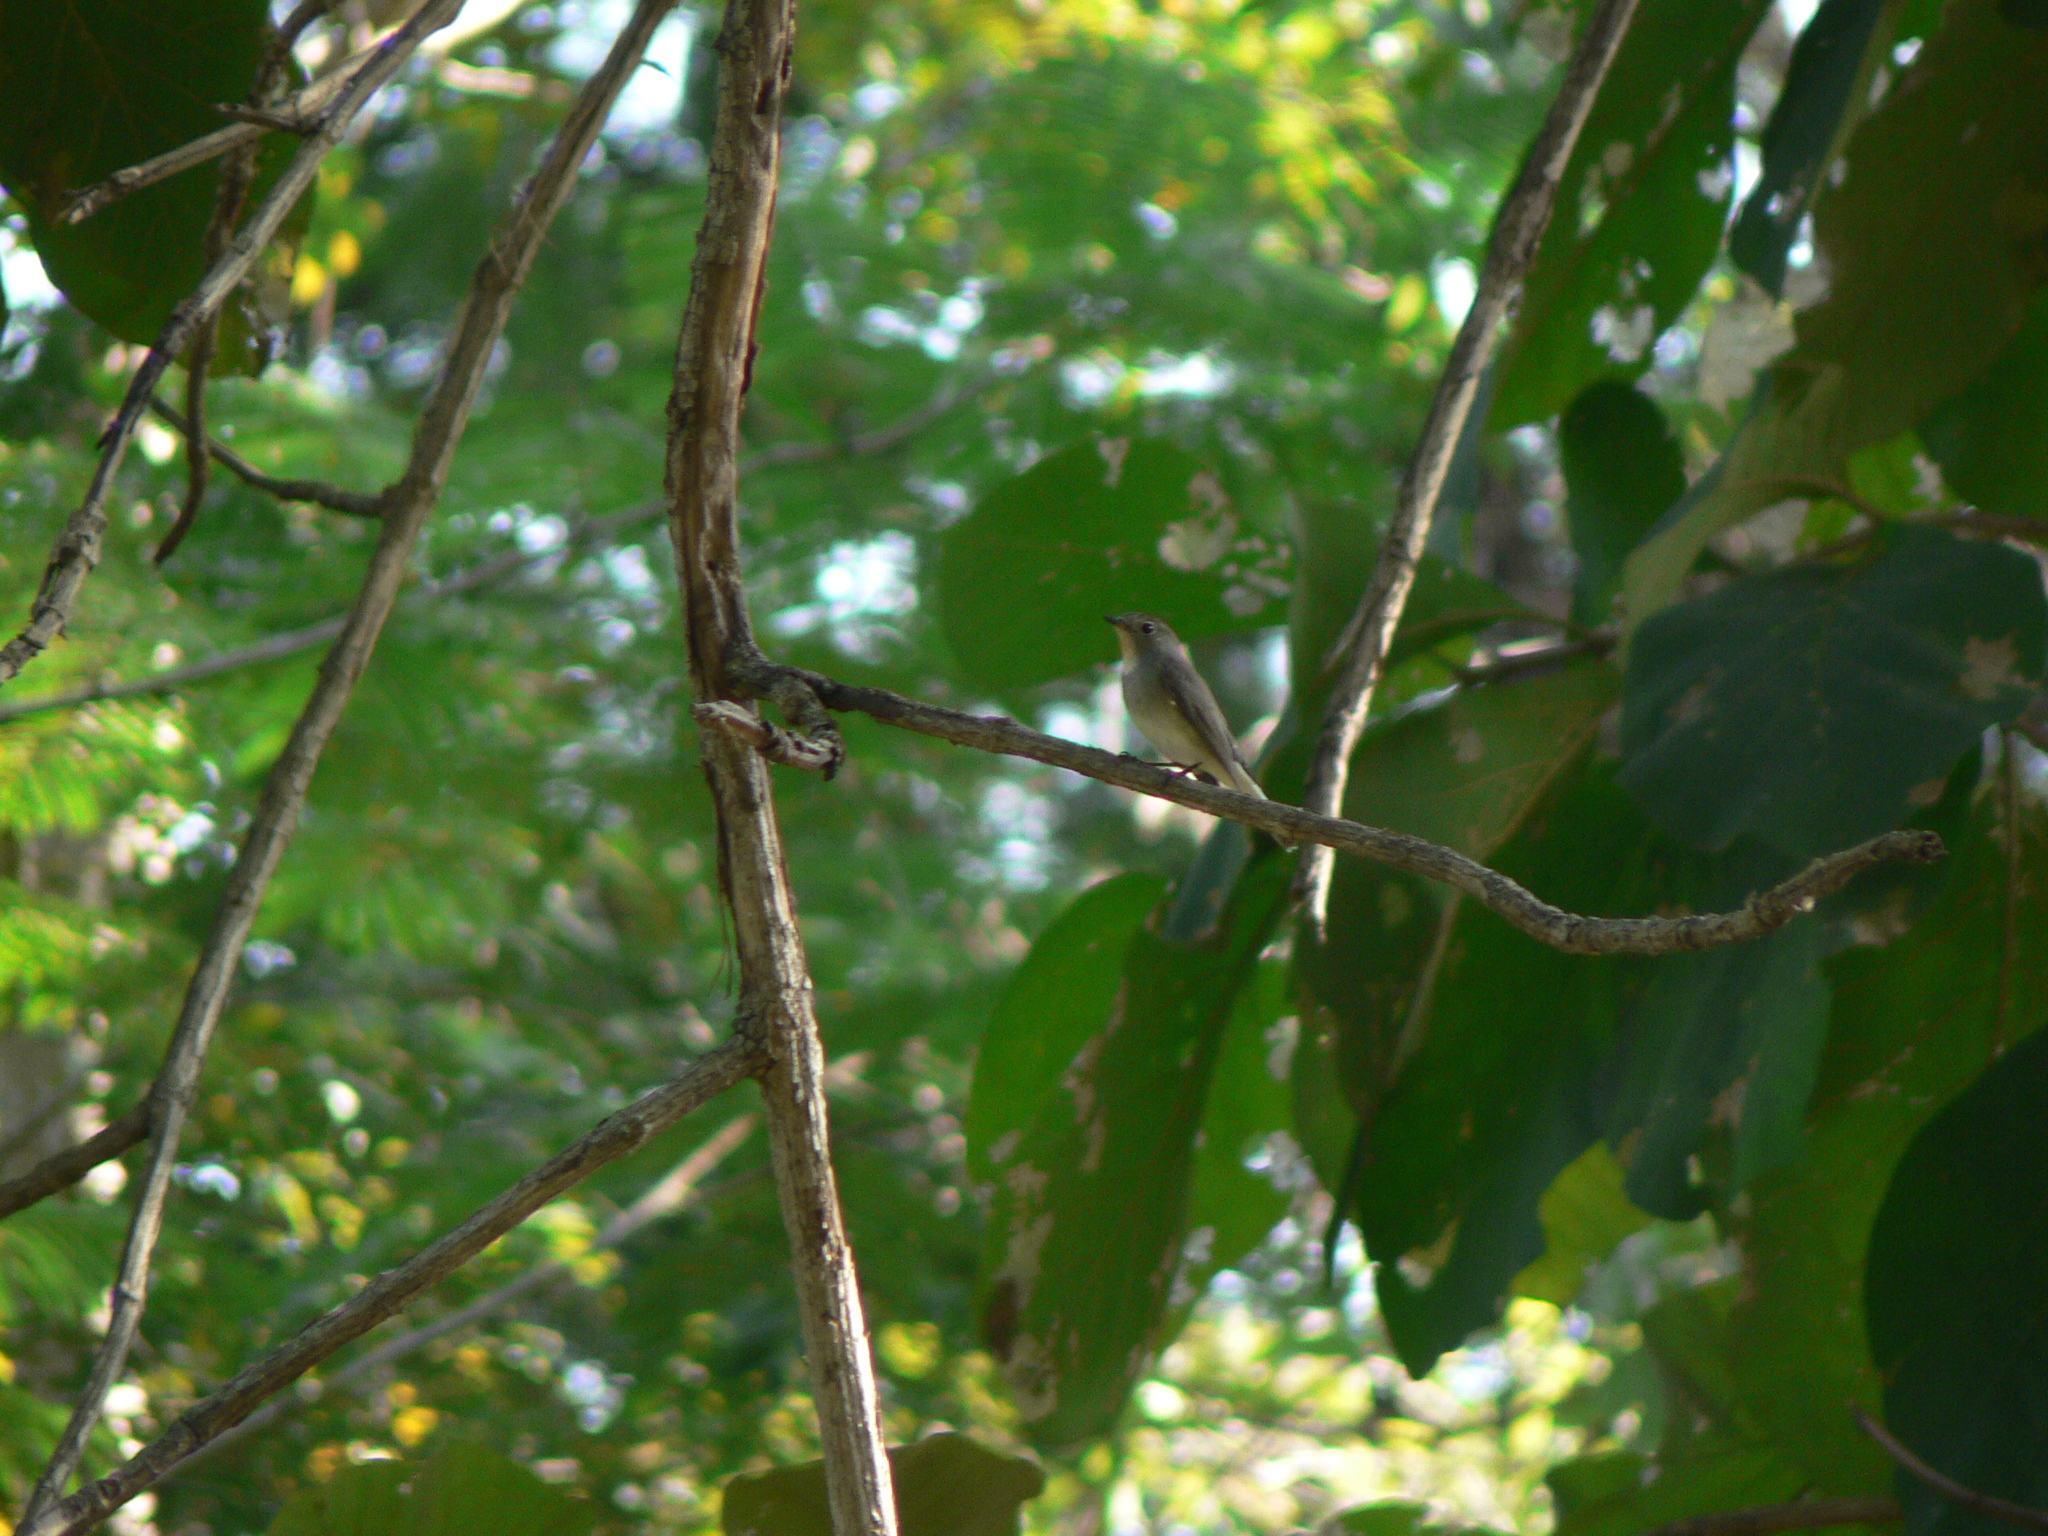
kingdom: Animalia
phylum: Chordata
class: Aves
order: Passeriformes
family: Muscicapidae
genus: Ficedula
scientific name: Ficedula albicilla
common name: Taiga flycatcher
